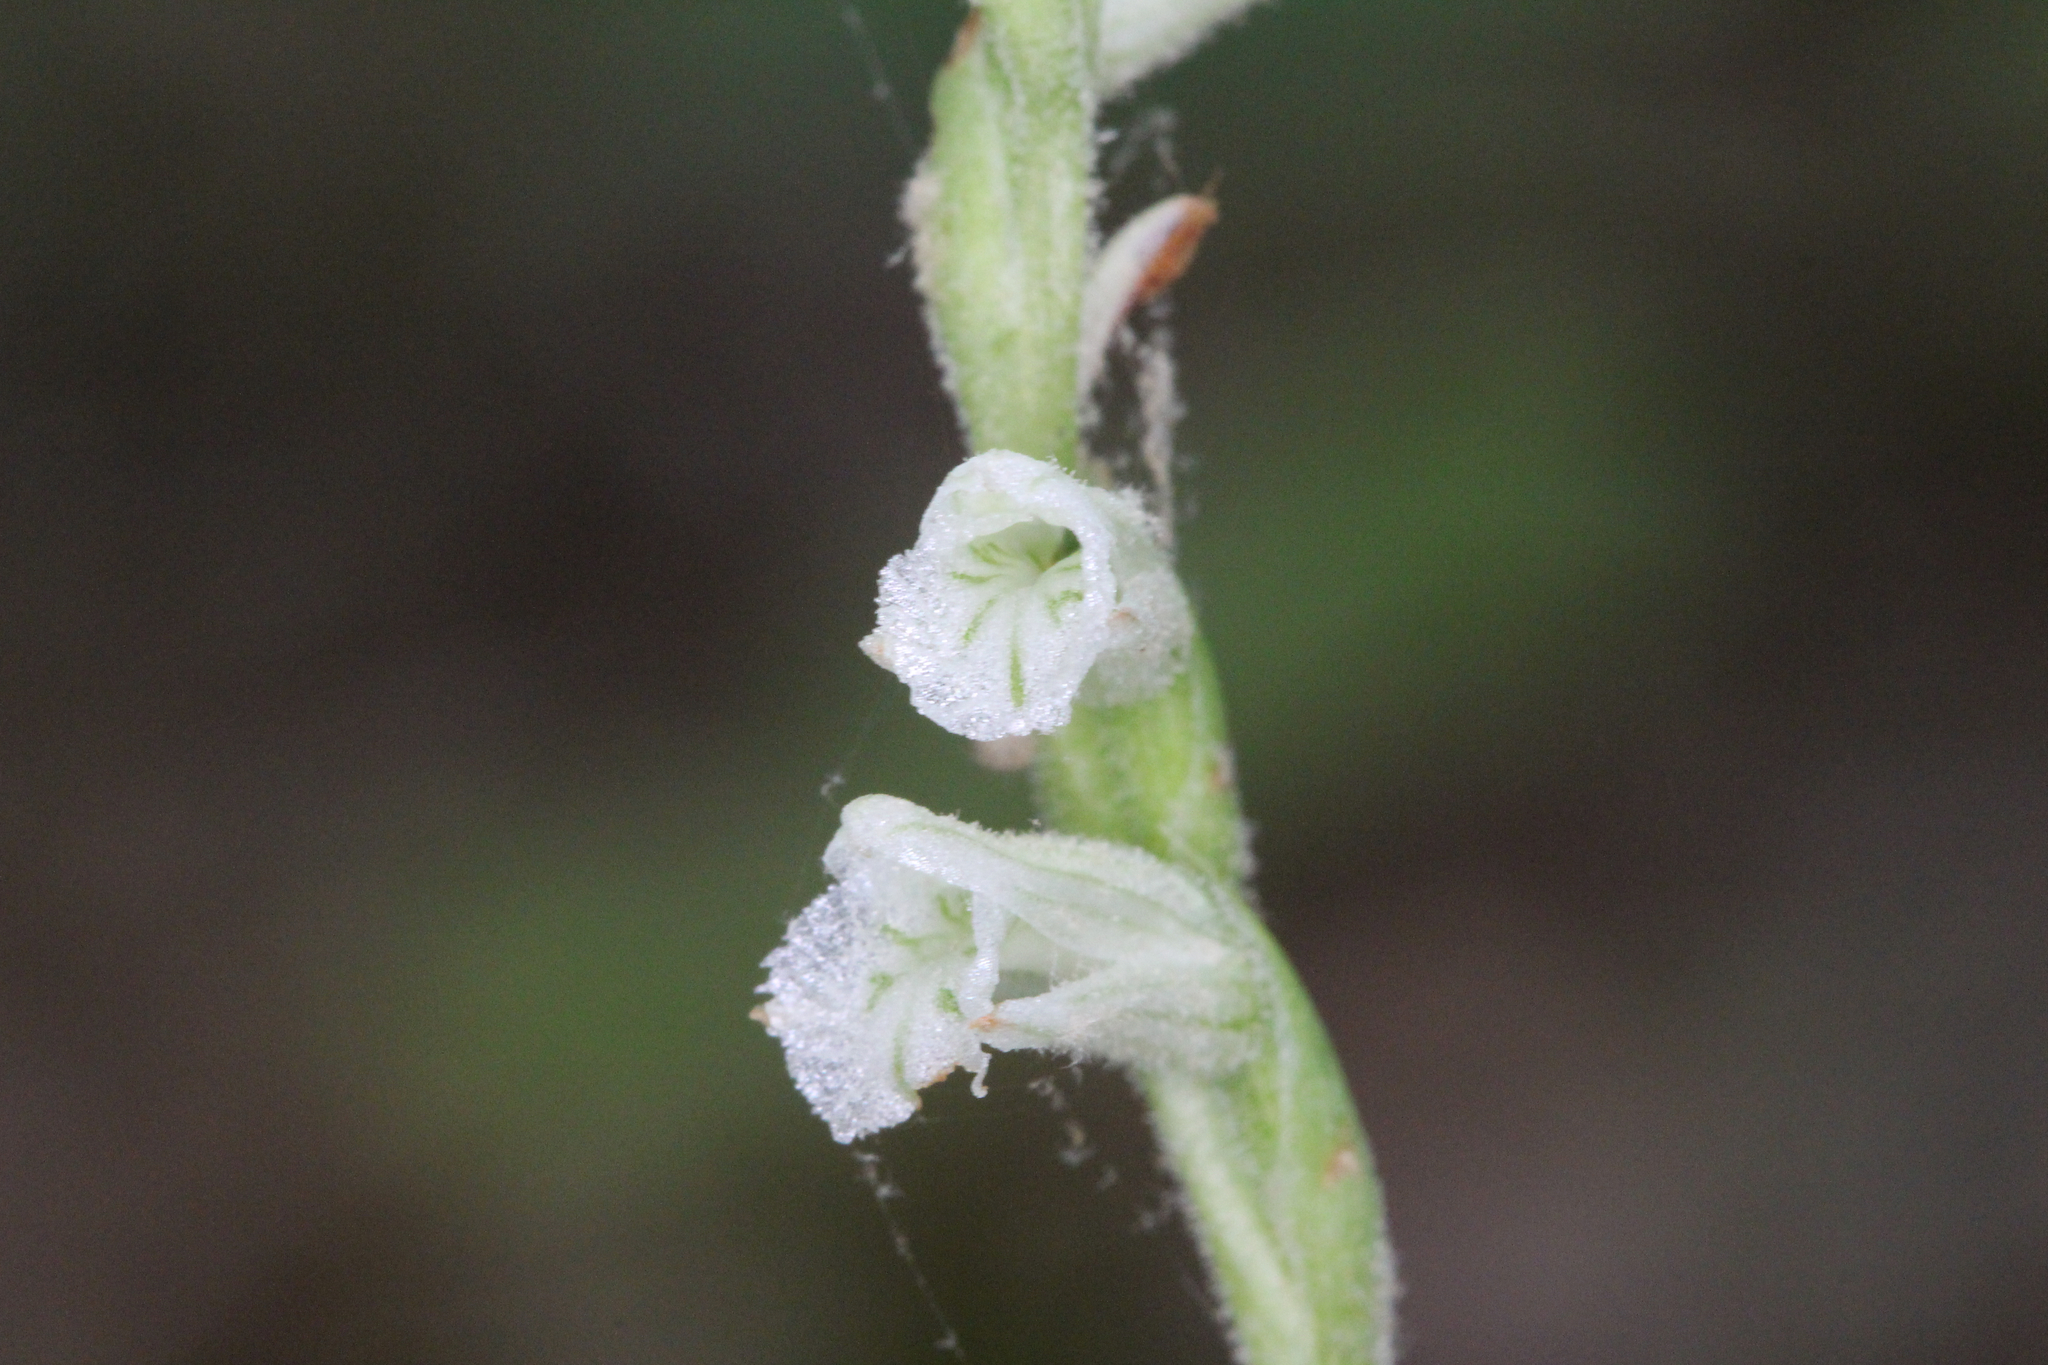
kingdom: Plantae
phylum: Tracheophyta
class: Liliopsida
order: Asparagales
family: Orchidaceae
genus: Spiranthes
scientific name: Spiranthes praecox
